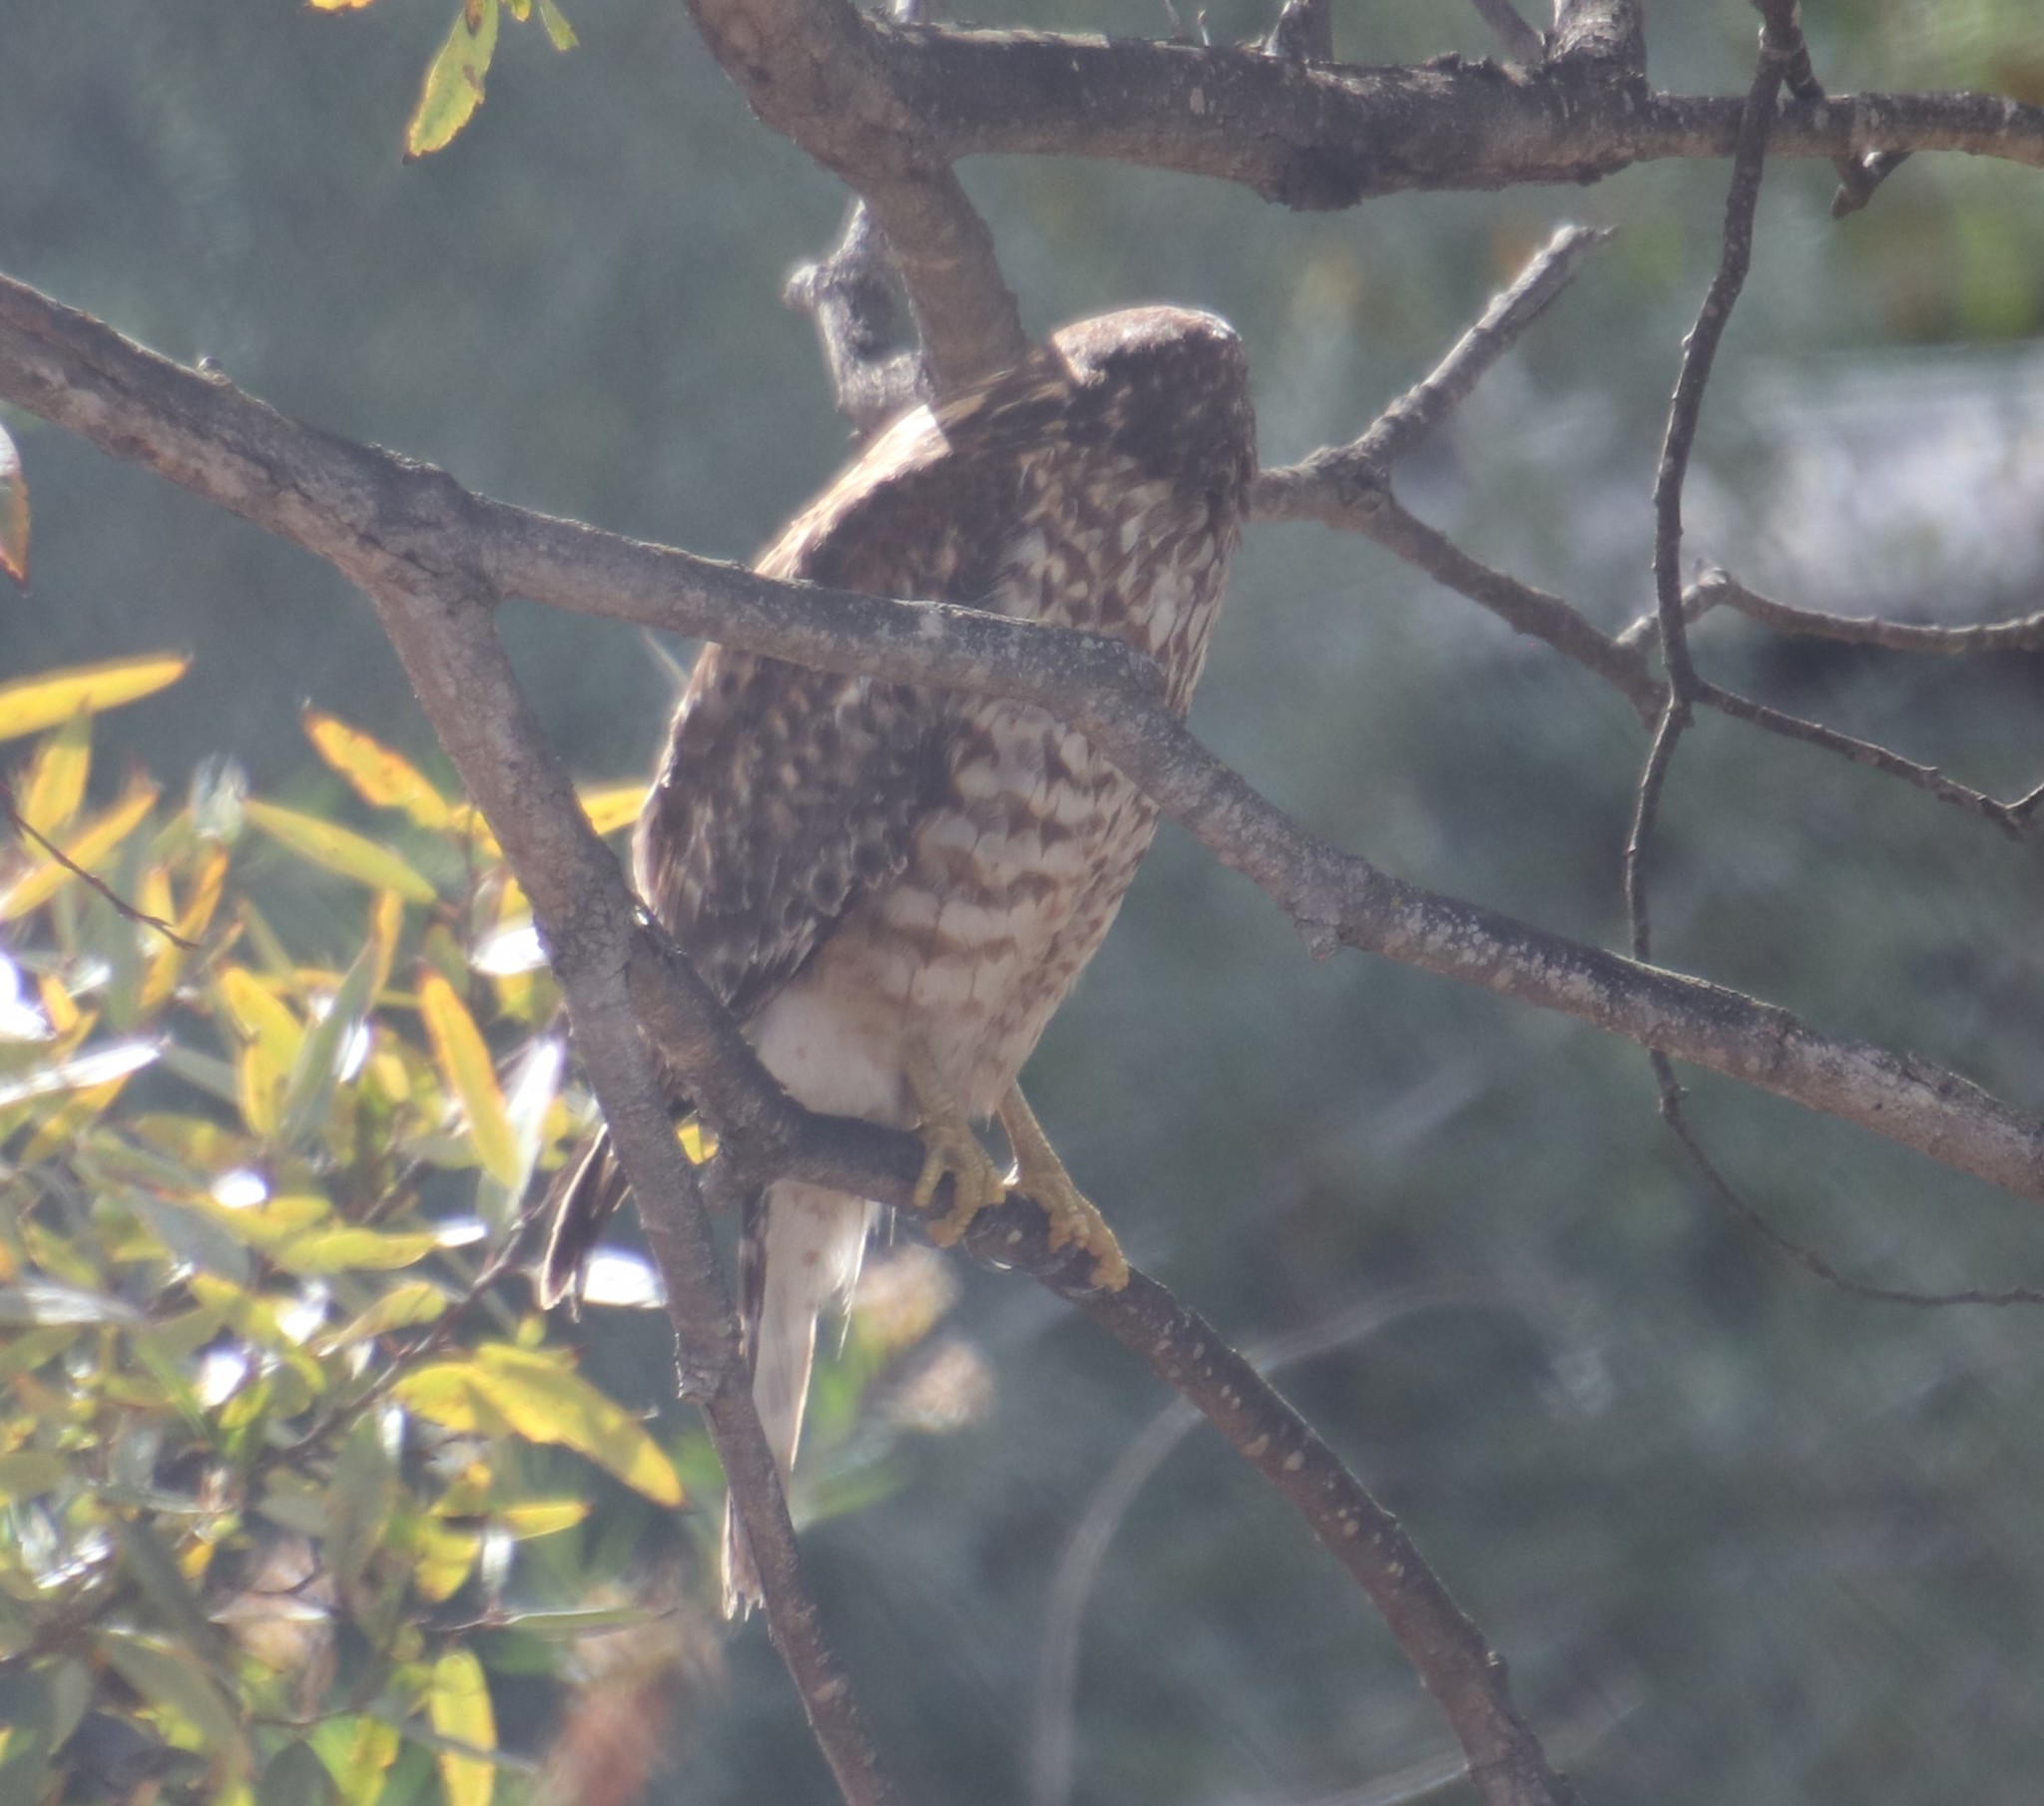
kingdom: Animalia
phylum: Chordata
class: Aves
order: Accipitriformes
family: Accipitridae
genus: Buteo
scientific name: Buteo lineatus
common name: Red-shouldered hawk
